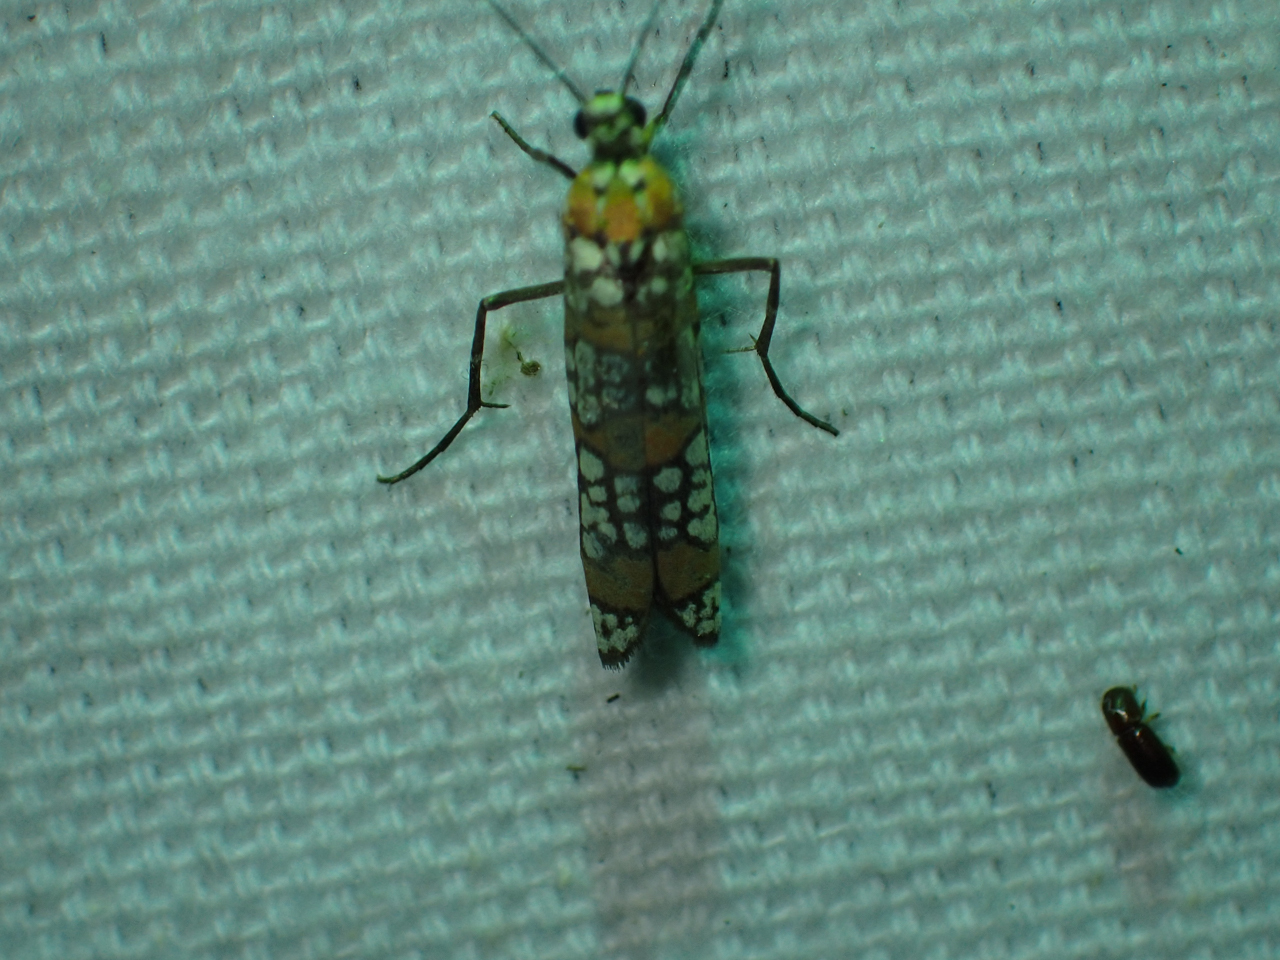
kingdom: Animalia
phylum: Arthropoda
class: Insecta
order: Lepidoptera
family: Attevidae
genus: Atteva
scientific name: Atteva punctella
